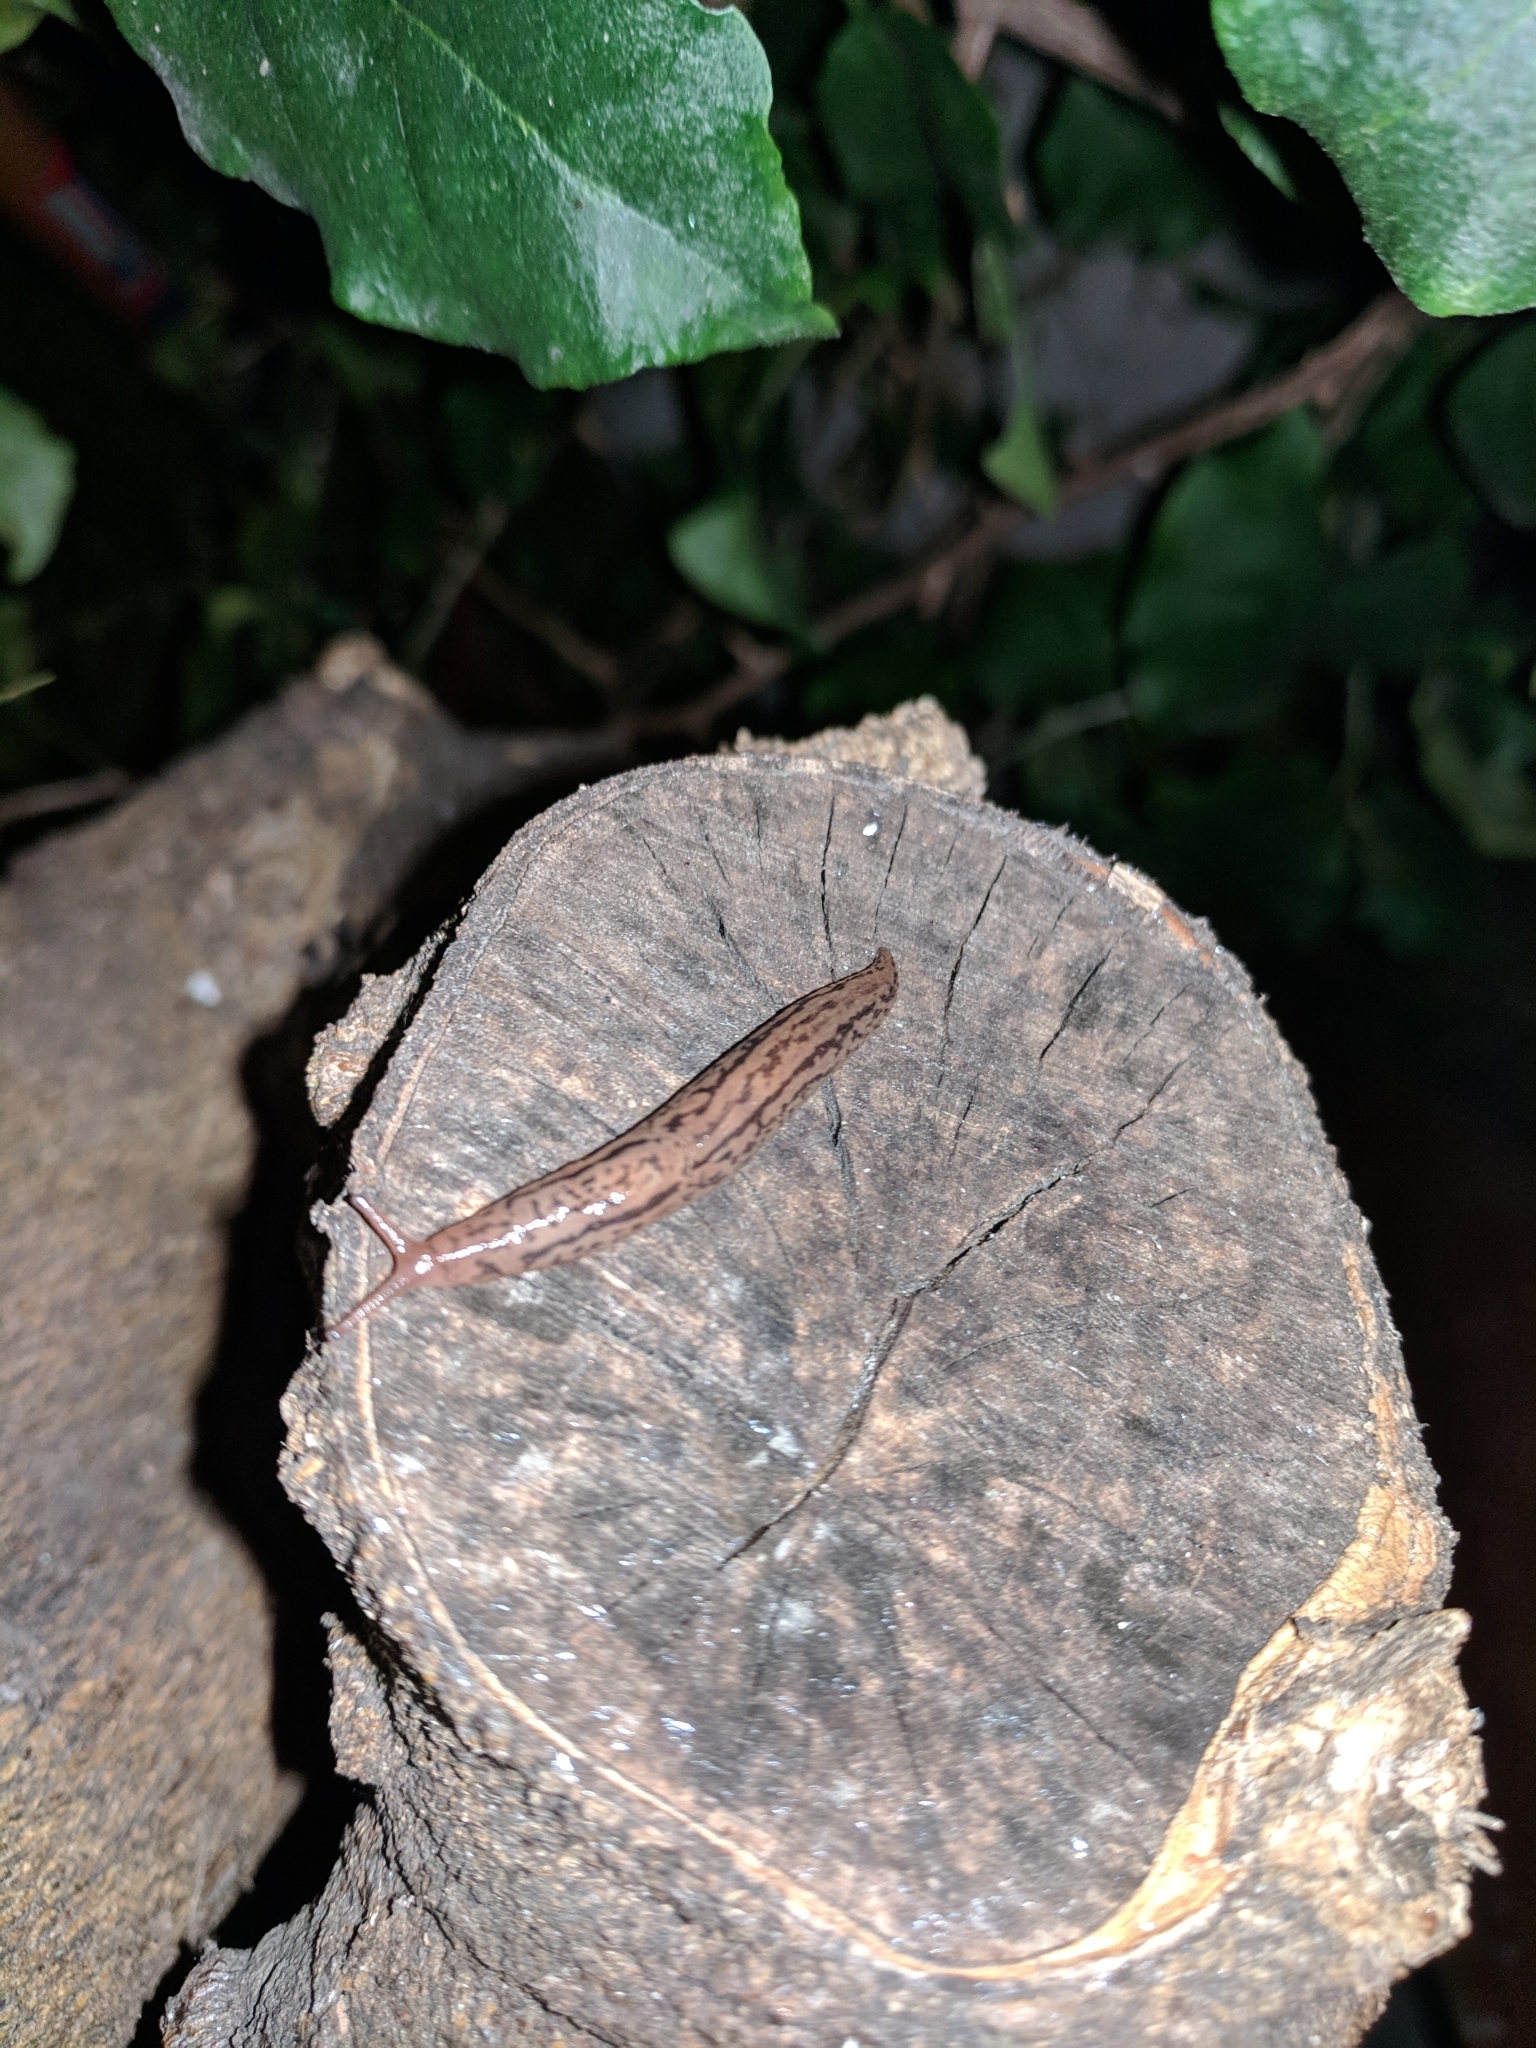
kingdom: Animalia
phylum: Mollusca
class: Gastropoda
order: Stylommatophora
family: Limacidae
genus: Ambigolimax
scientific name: Ambigolimax
